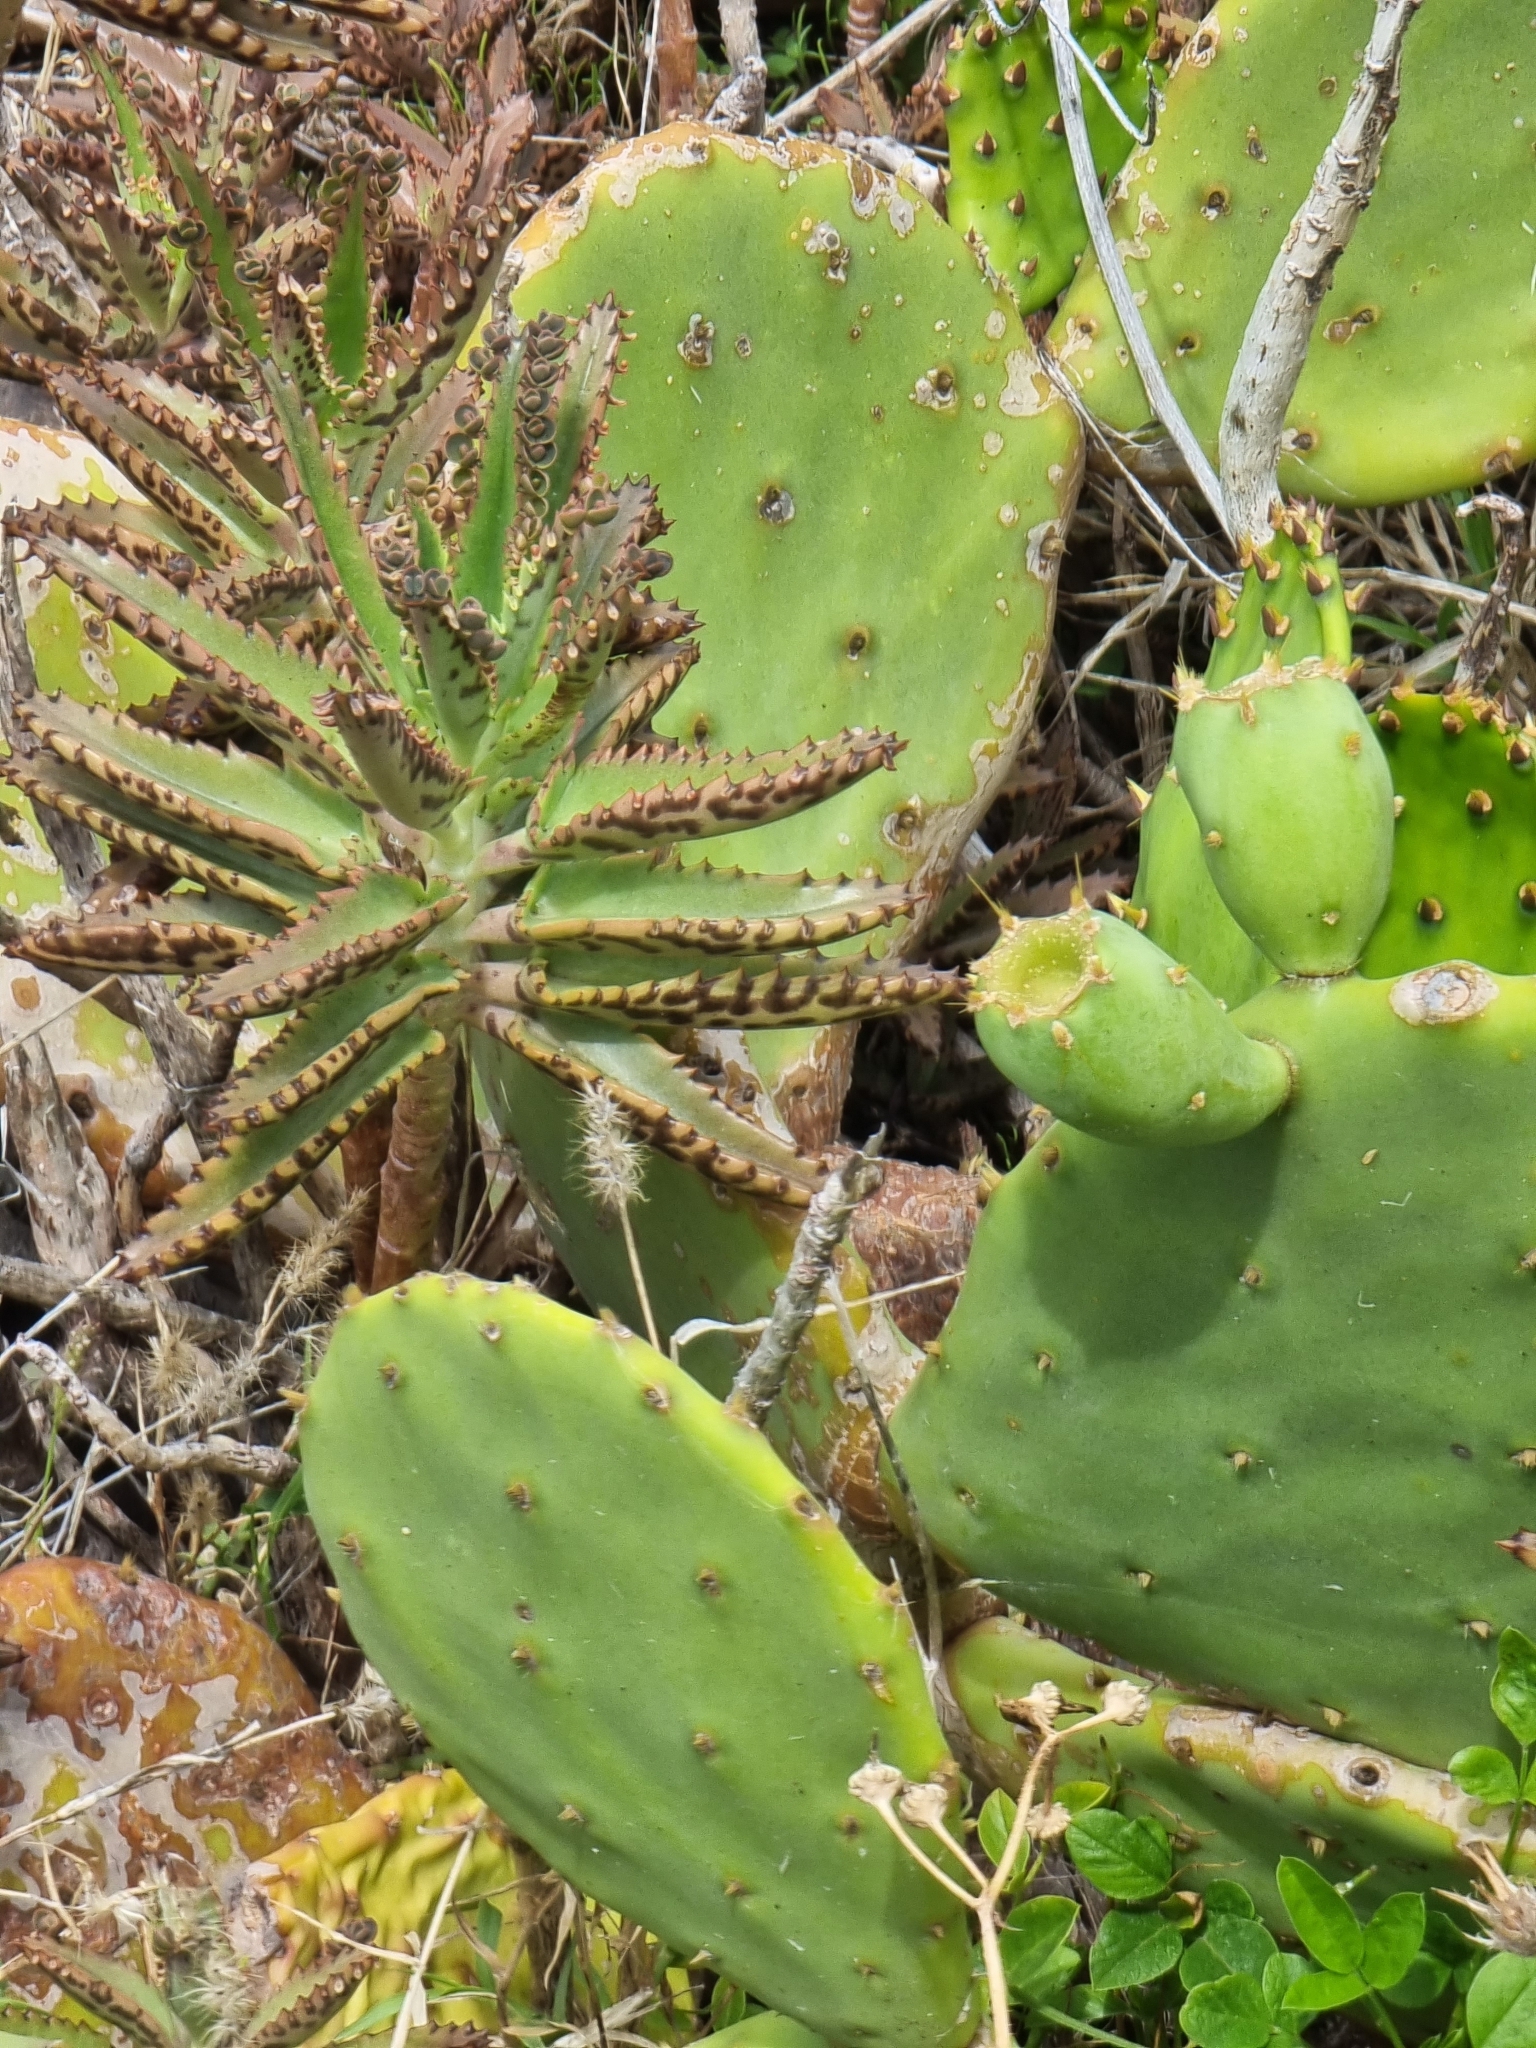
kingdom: Plantae
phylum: Tracheophyta
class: Magnoliopsida
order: Saxifragales
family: Crassulaceae
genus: Kalanchoe
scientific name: Kalanchoe houghtonii
